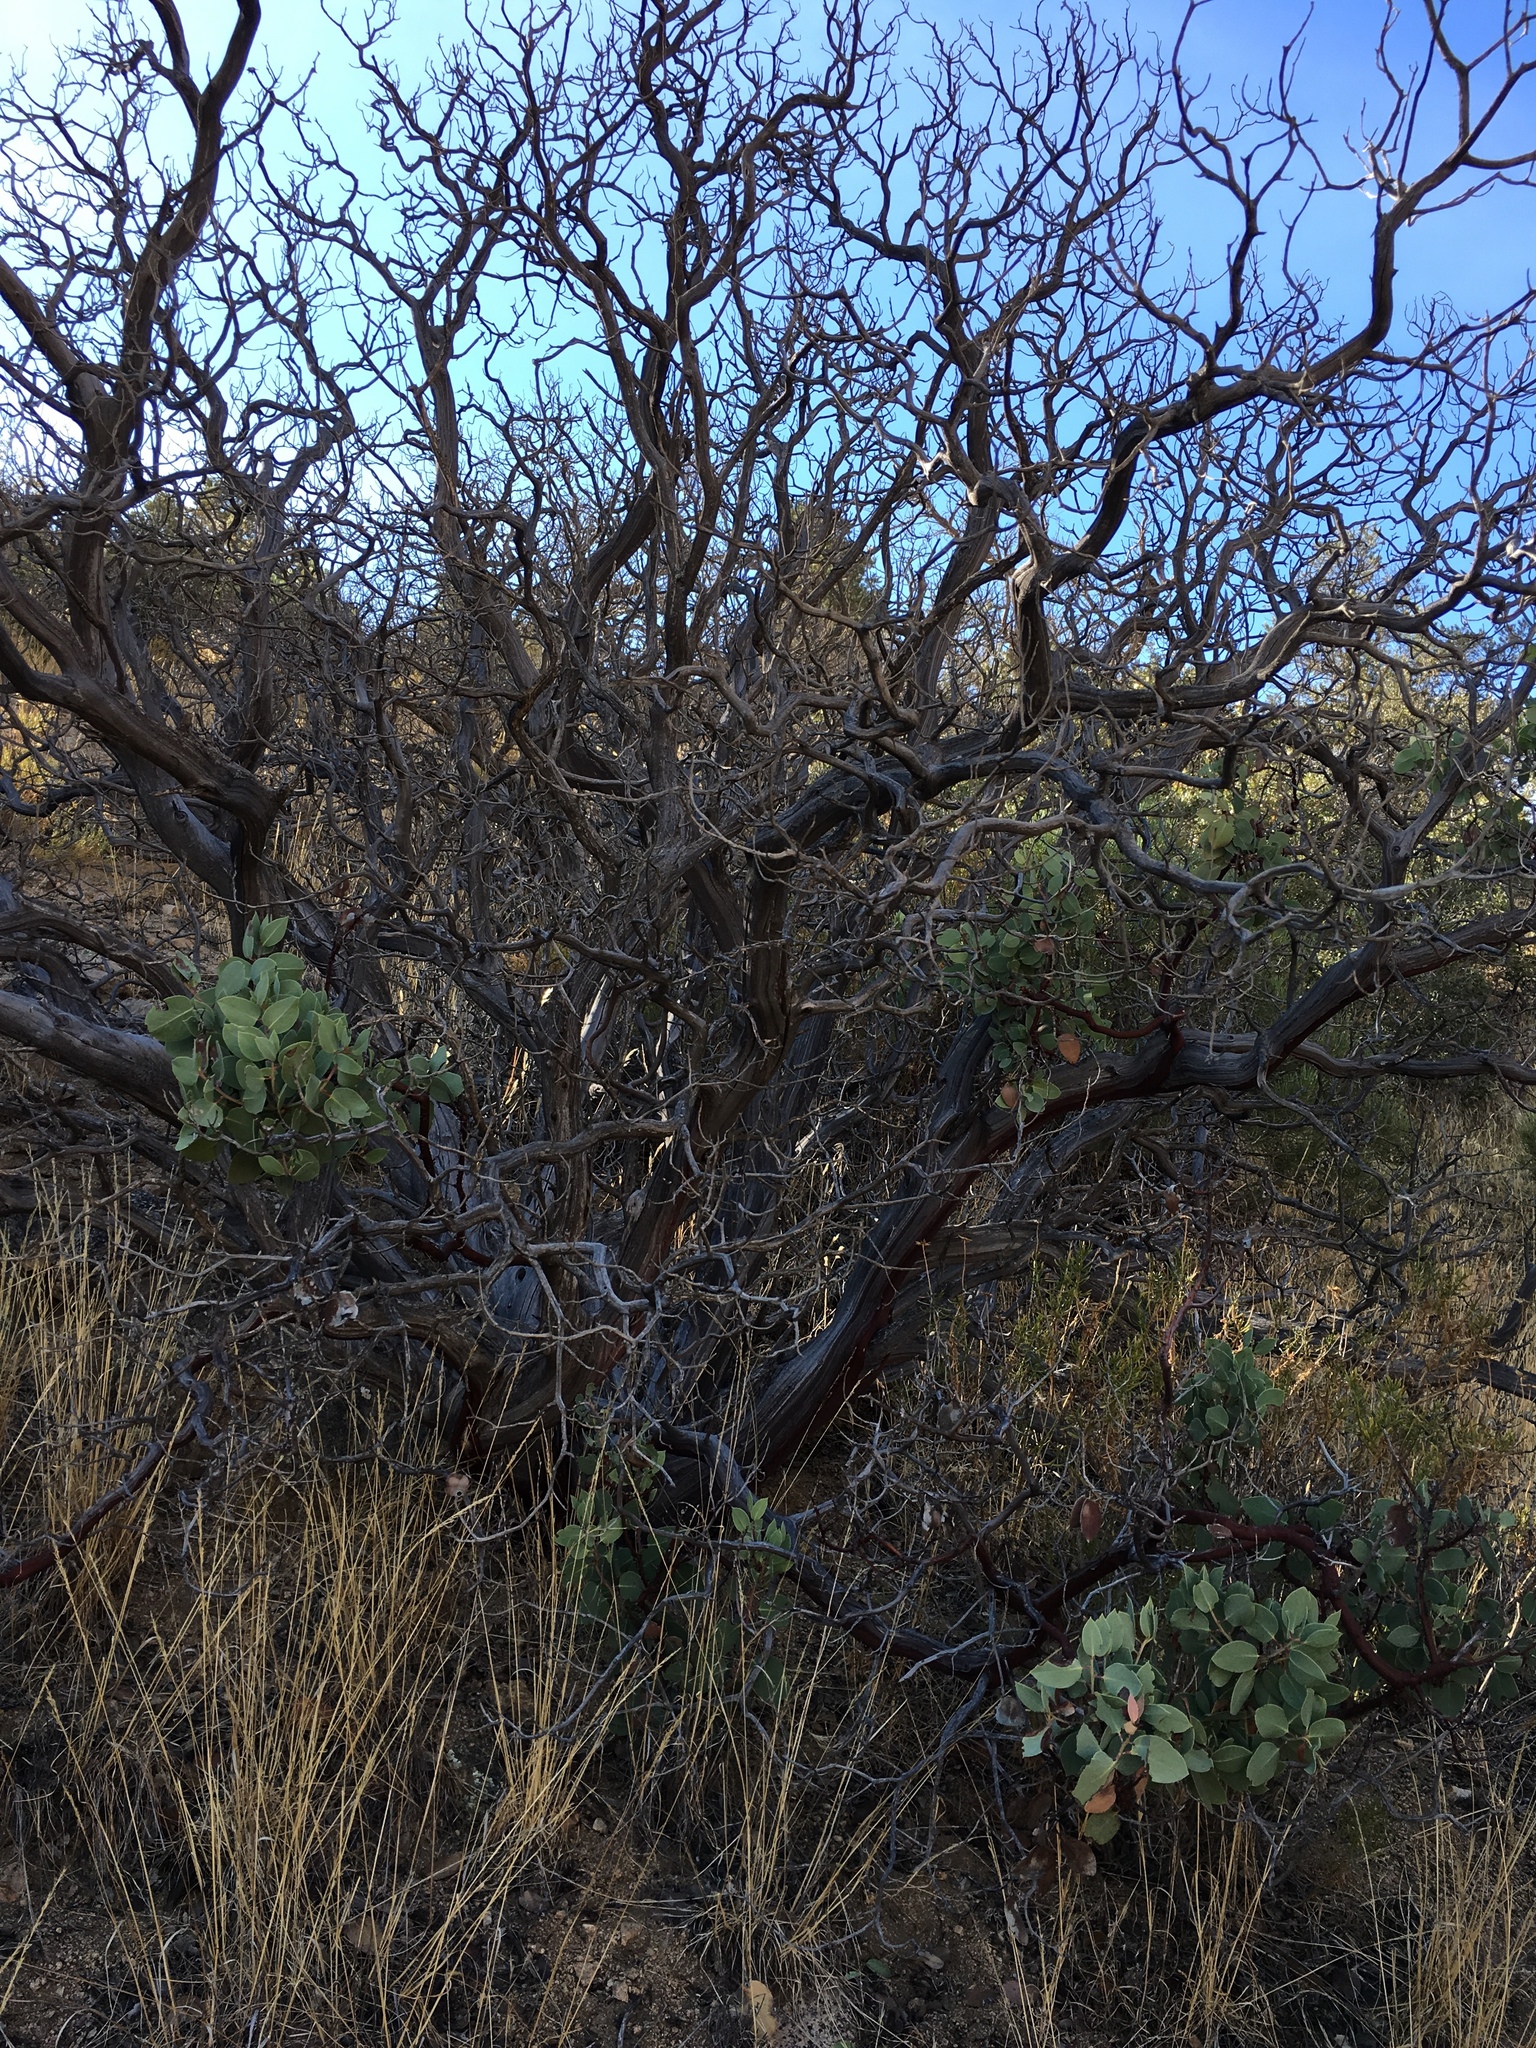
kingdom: Plantae
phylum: Tracheophyta
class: Magnoliopsida
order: Ericales
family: Ericaceae
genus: Arctostaphylos
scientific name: Arctostaphylos glauca
